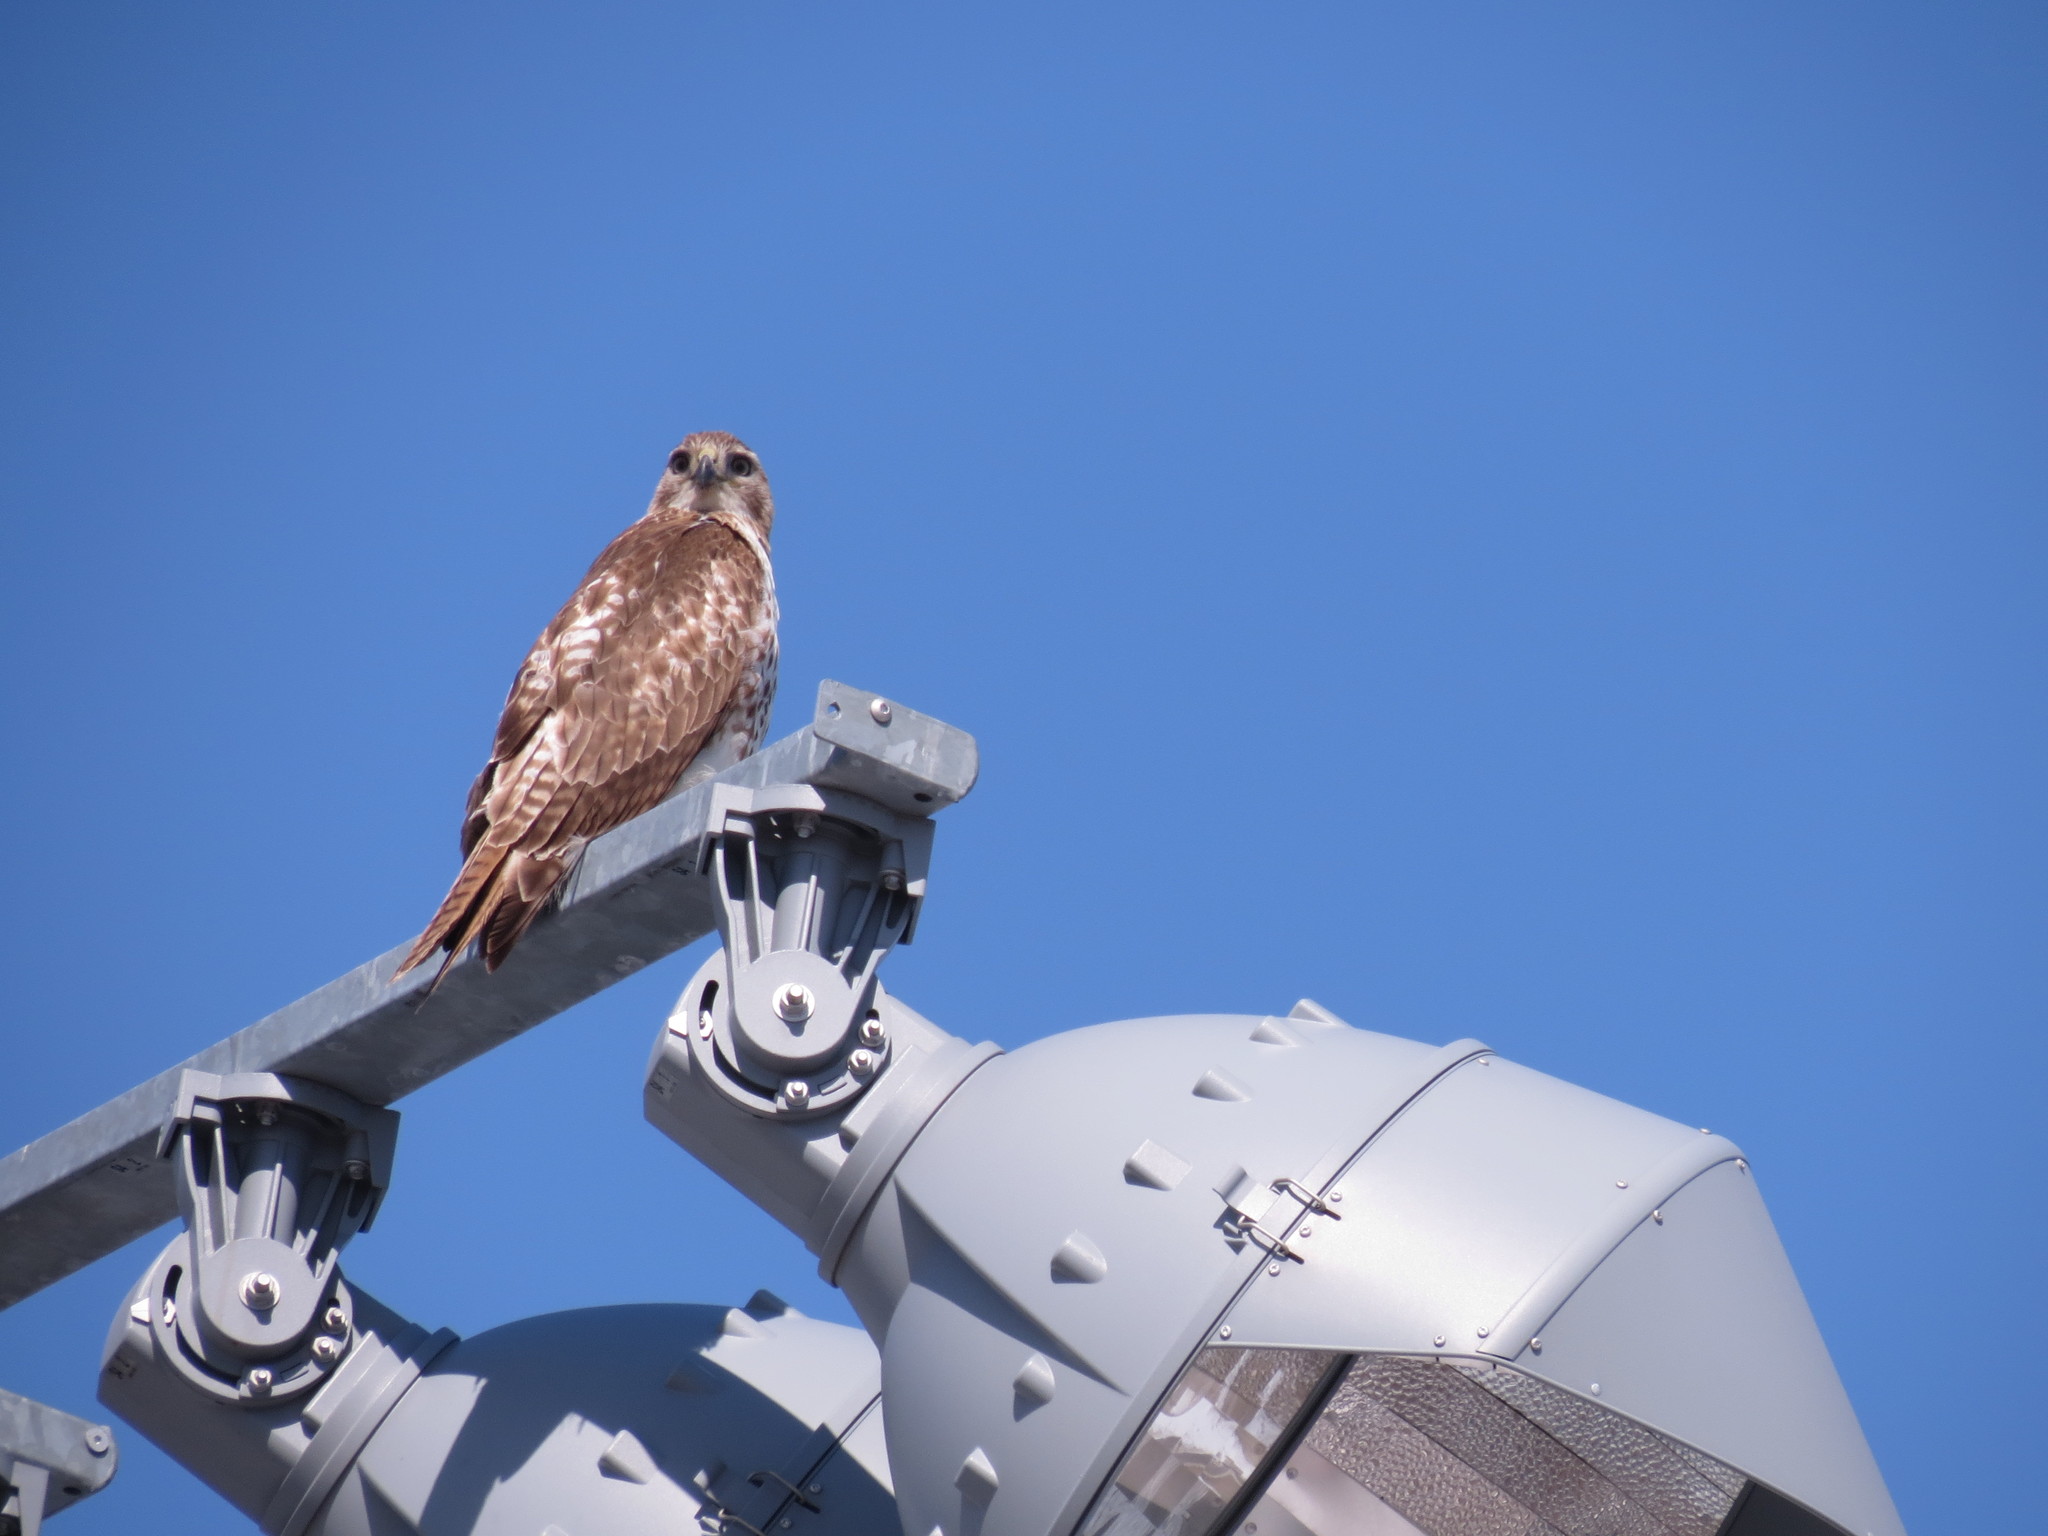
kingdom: Animalia
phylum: Chordata
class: Aves
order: Accipitriformes
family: Accipitridae
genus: Buteo
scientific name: Buteo jamaicensis
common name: Red-tailed hawk
